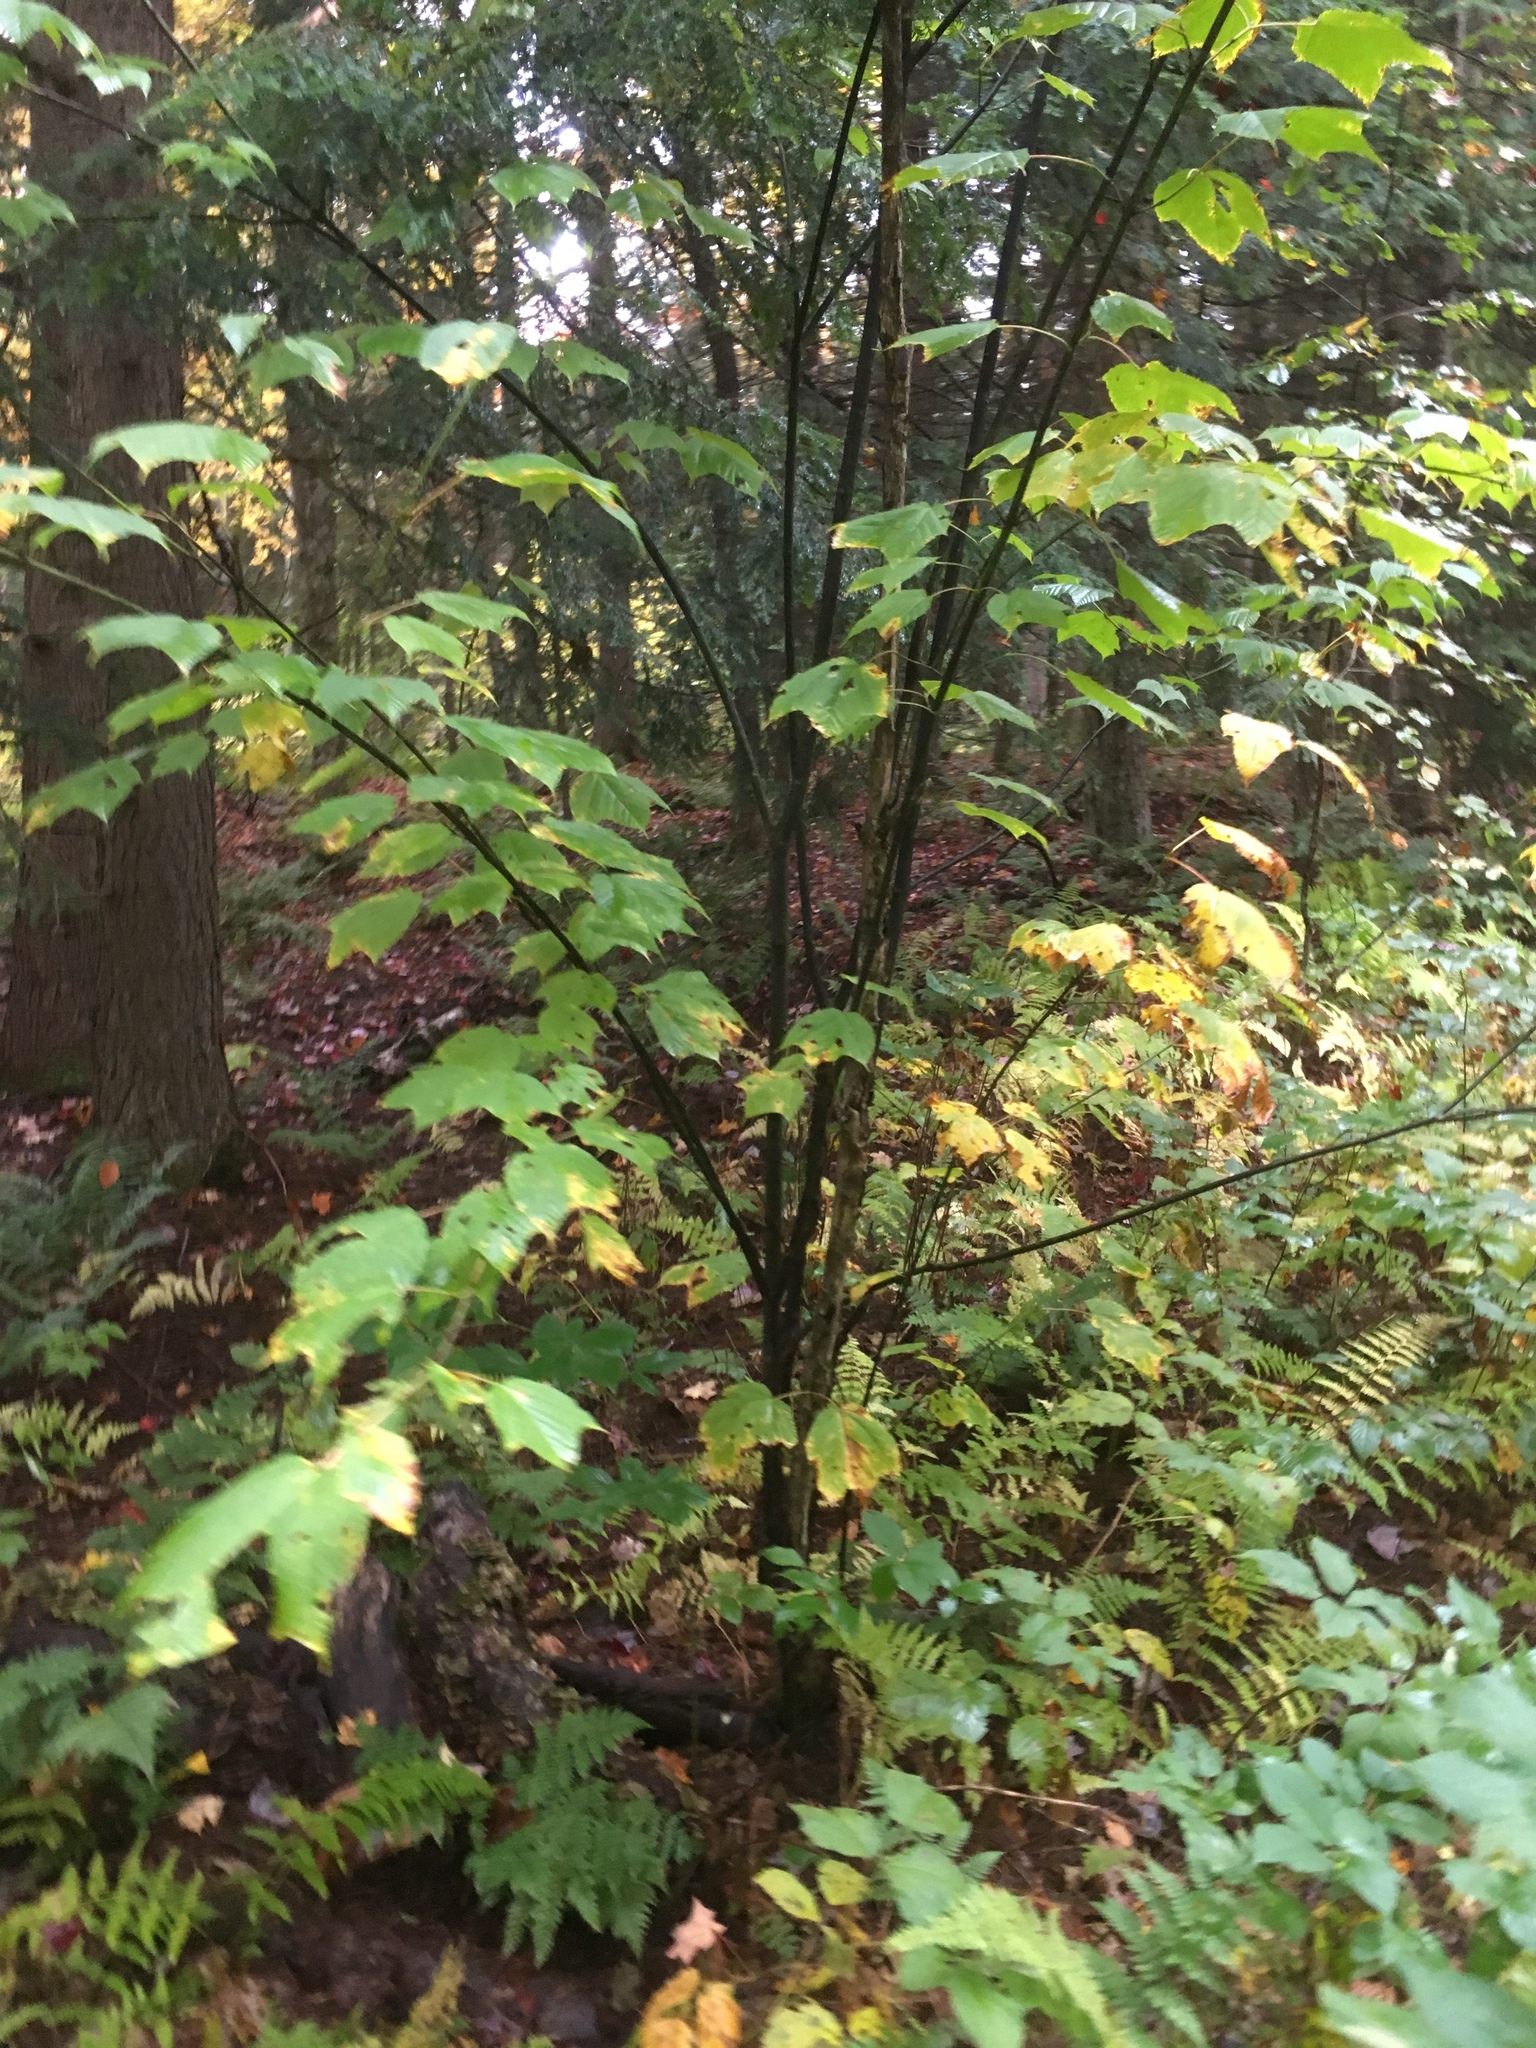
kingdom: Plantae
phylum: Tracheophyta
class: Magnoliopsida
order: Sapindales
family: Sapindaceae
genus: Acer
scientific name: Acer pensylvanicum
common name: Moosewood
